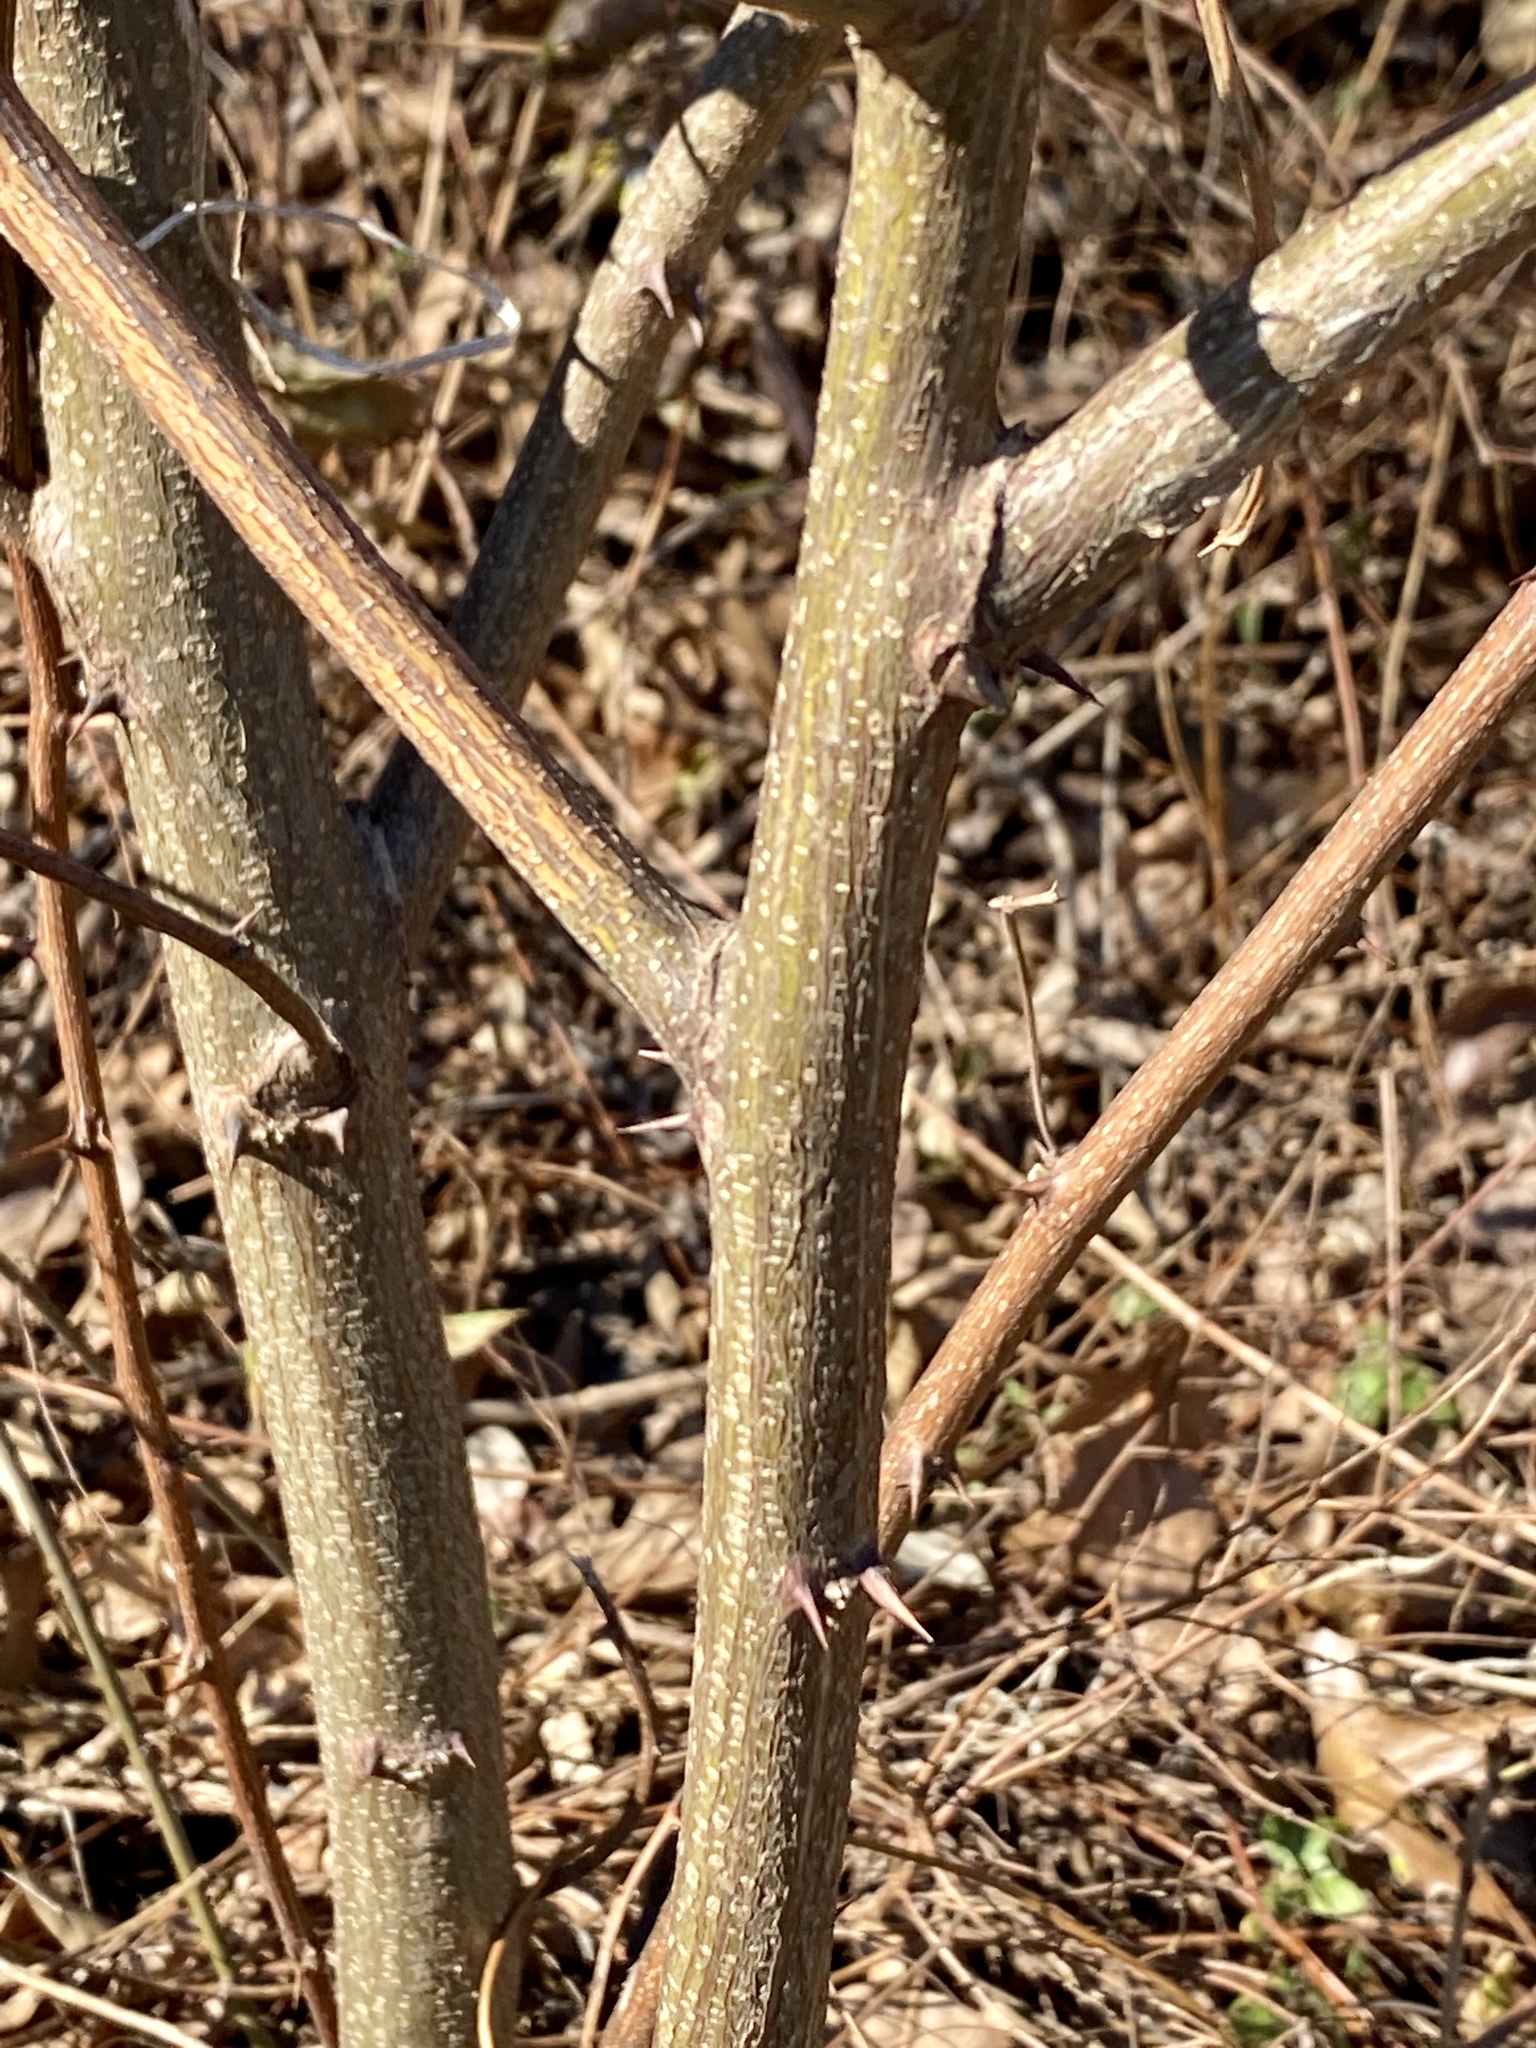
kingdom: Plantae
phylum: Tracheophyta
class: Magnoliopsida
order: Fabales
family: Fabaceae
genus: Robinia
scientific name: Robinia pseudoacacia
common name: Black locust
